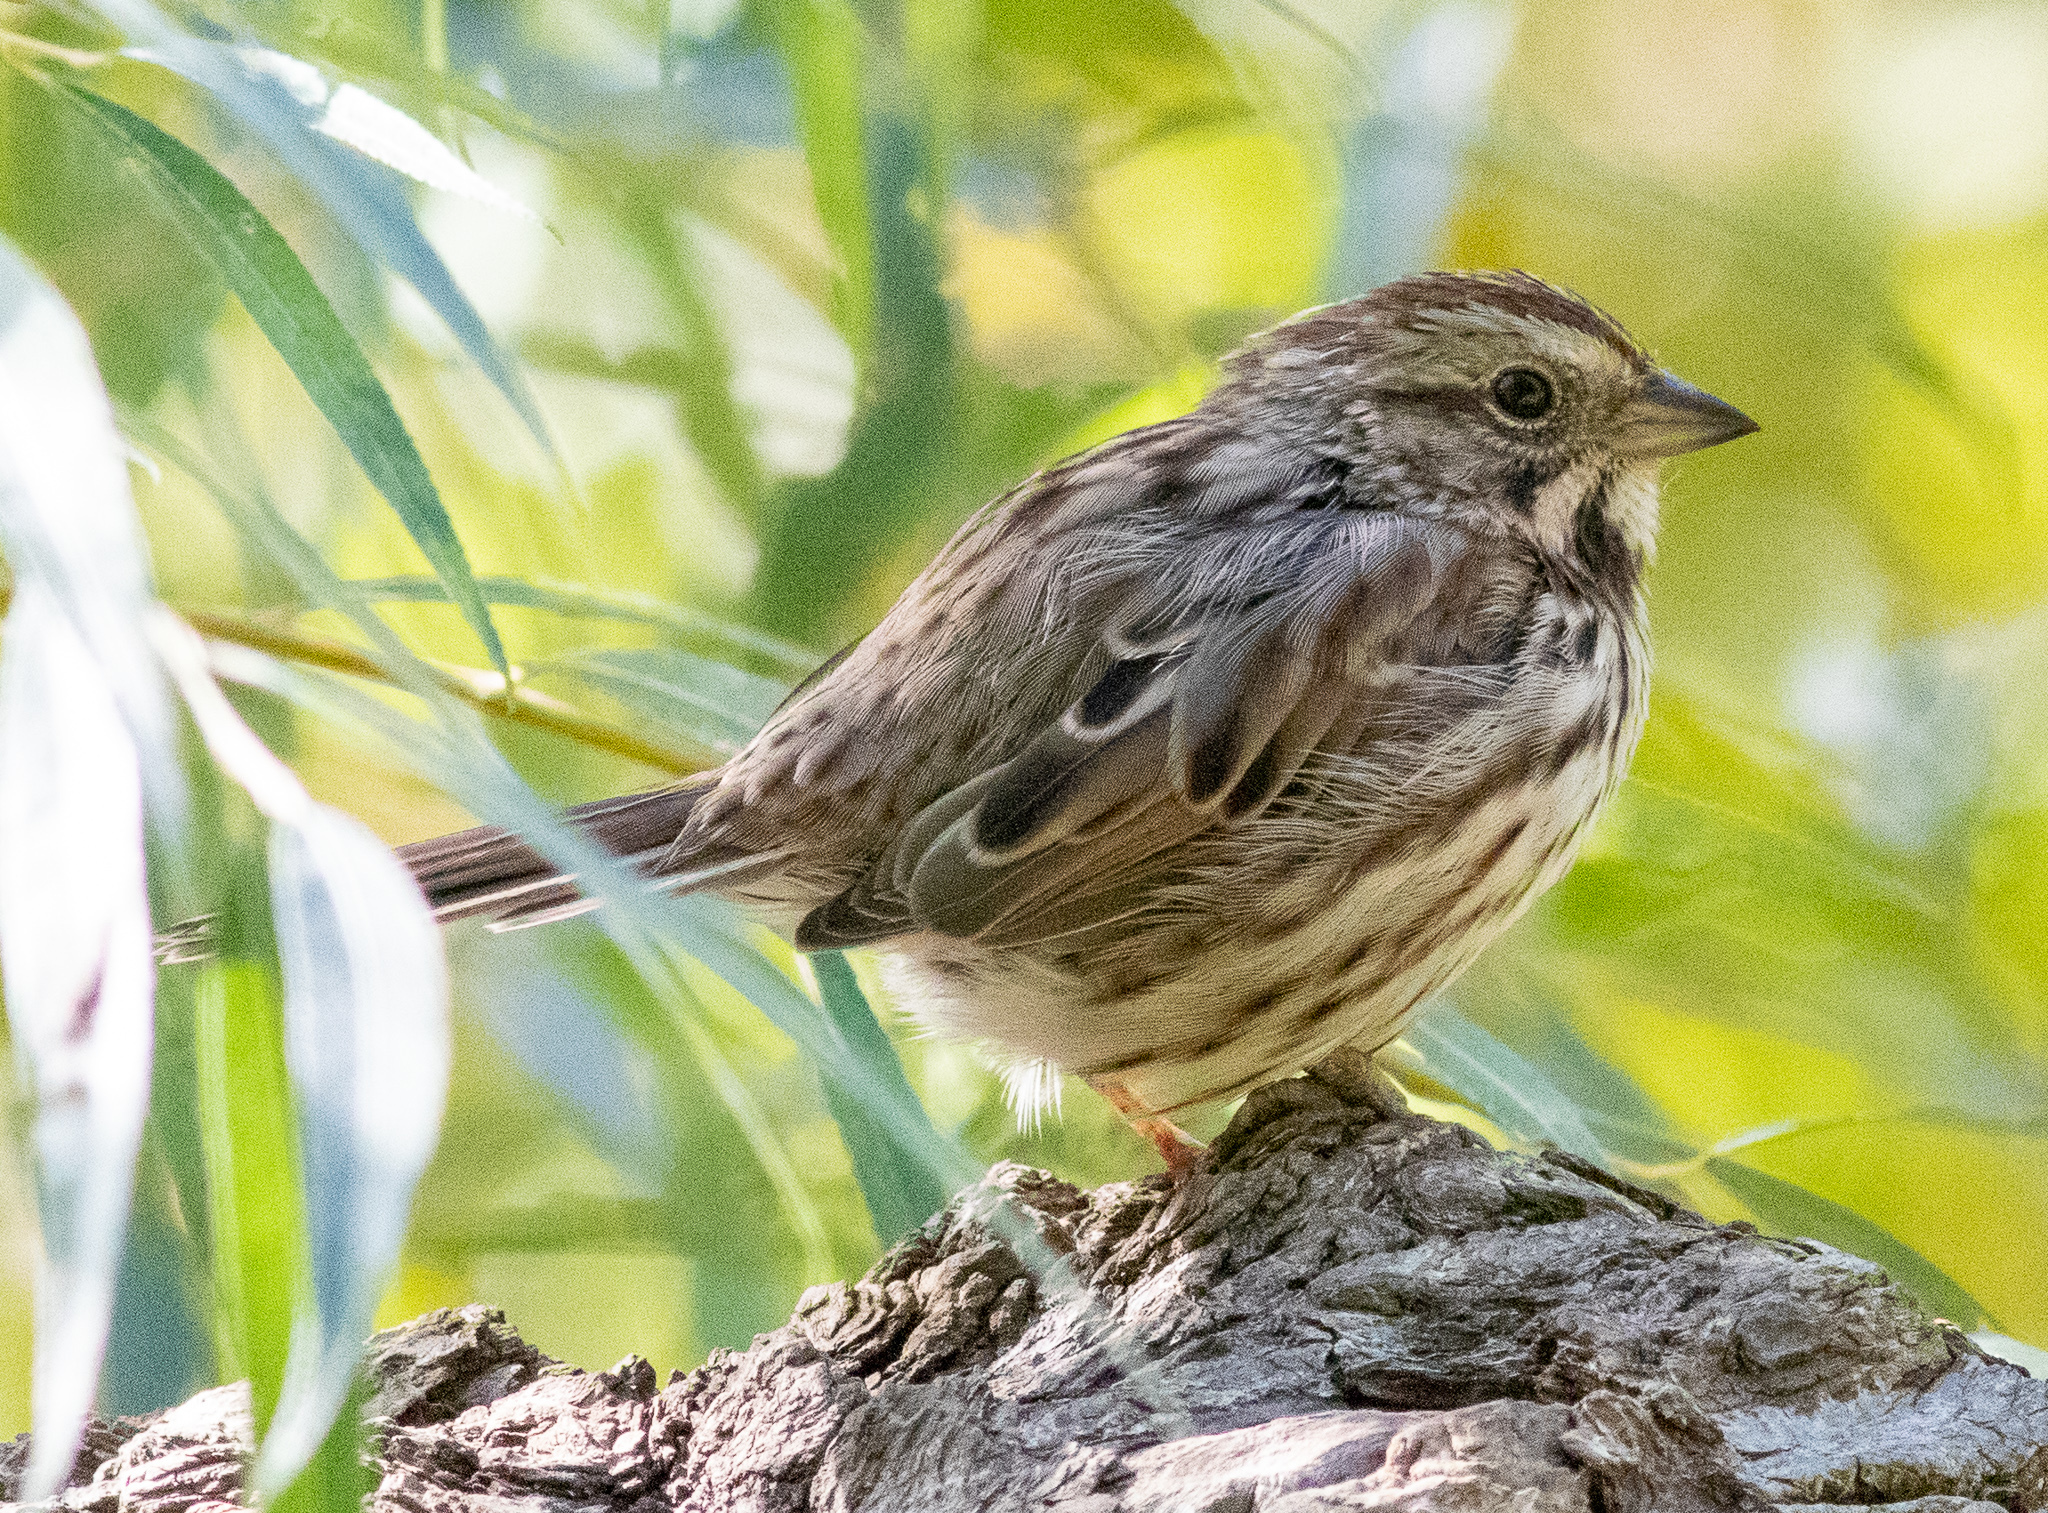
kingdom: Animalia
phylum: Chordata
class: Aves
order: Passeriformes
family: Passerellidae
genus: Melospiza
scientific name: Melospiza melodia
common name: Song sparrow
